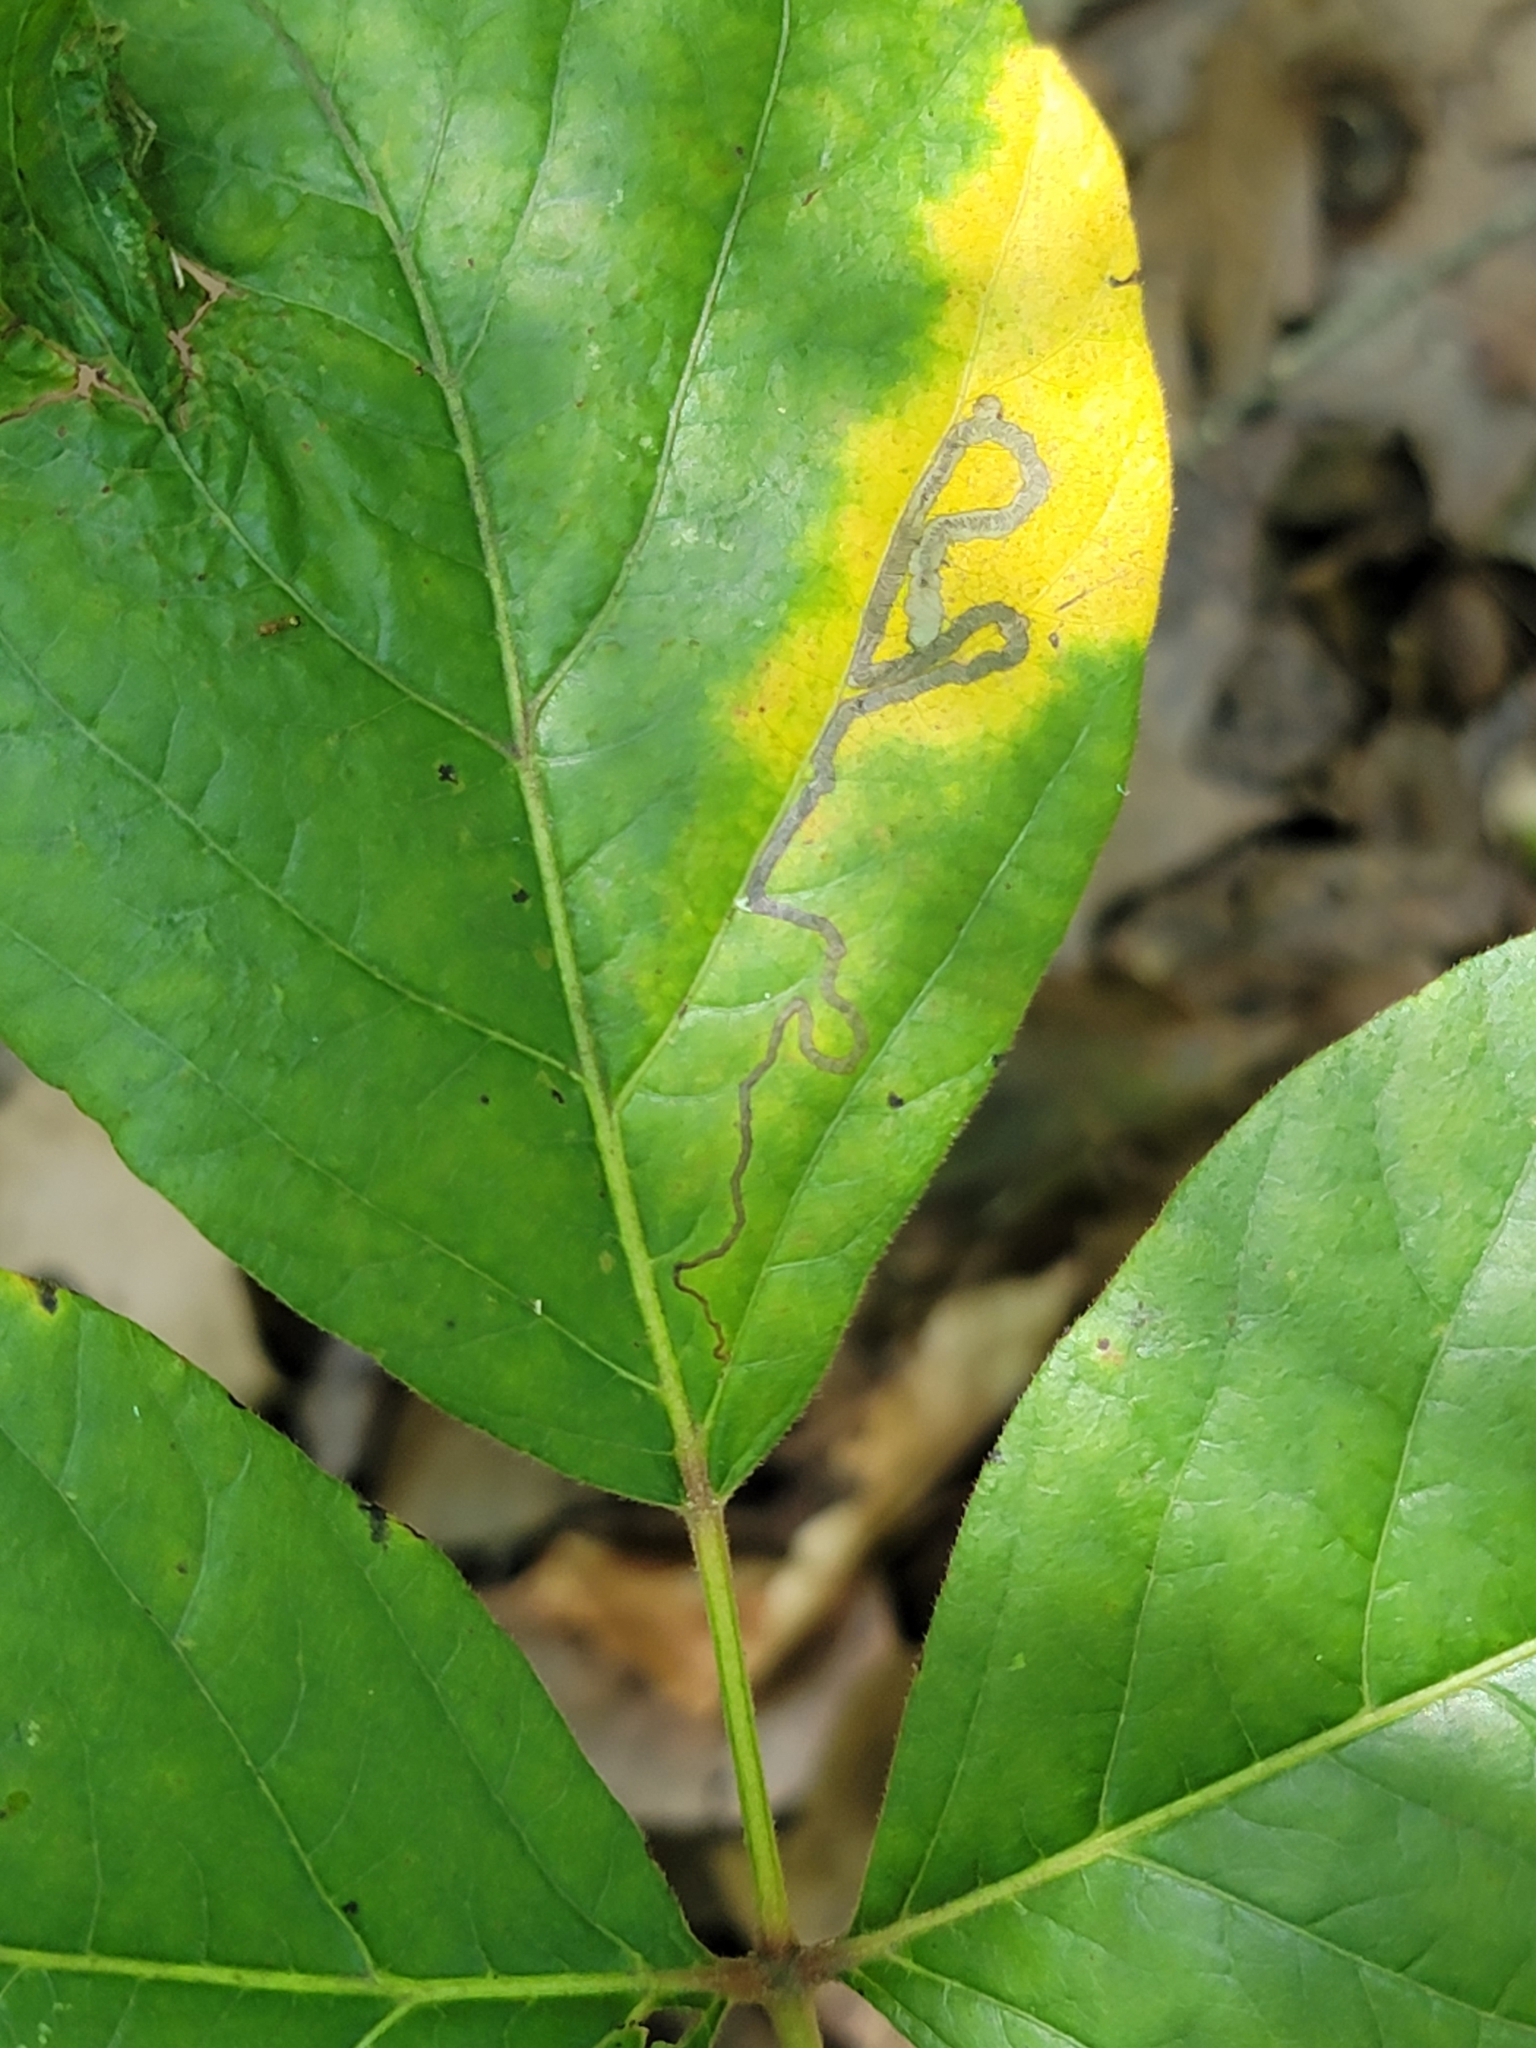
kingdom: Animalia
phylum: Arthropoda
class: Insecta
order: Lepidoptera
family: Nepticulidae
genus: Stigmella
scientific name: Stigmella rhoifoliella
